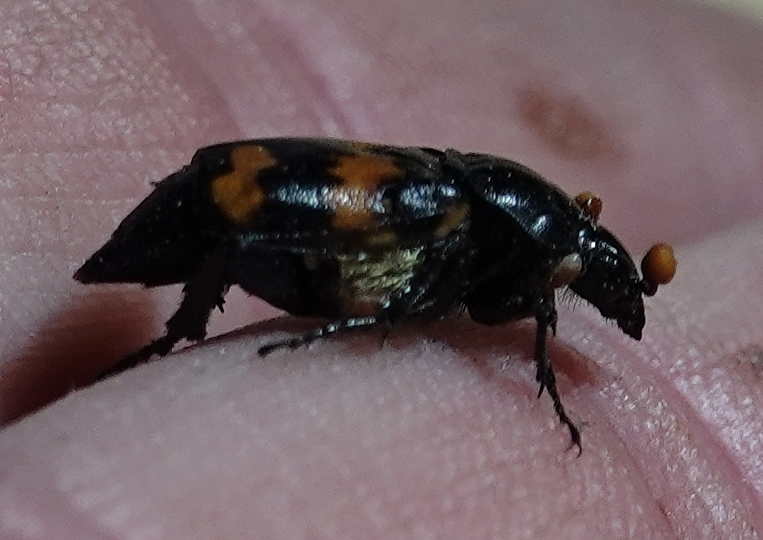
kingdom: Animalia
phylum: Arthropoda
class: Insecta
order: Coleoptera
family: Staphylinidae
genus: Nicrophorus
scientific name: Nicrophorus orbicollis
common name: Roundneck sexton beetle
